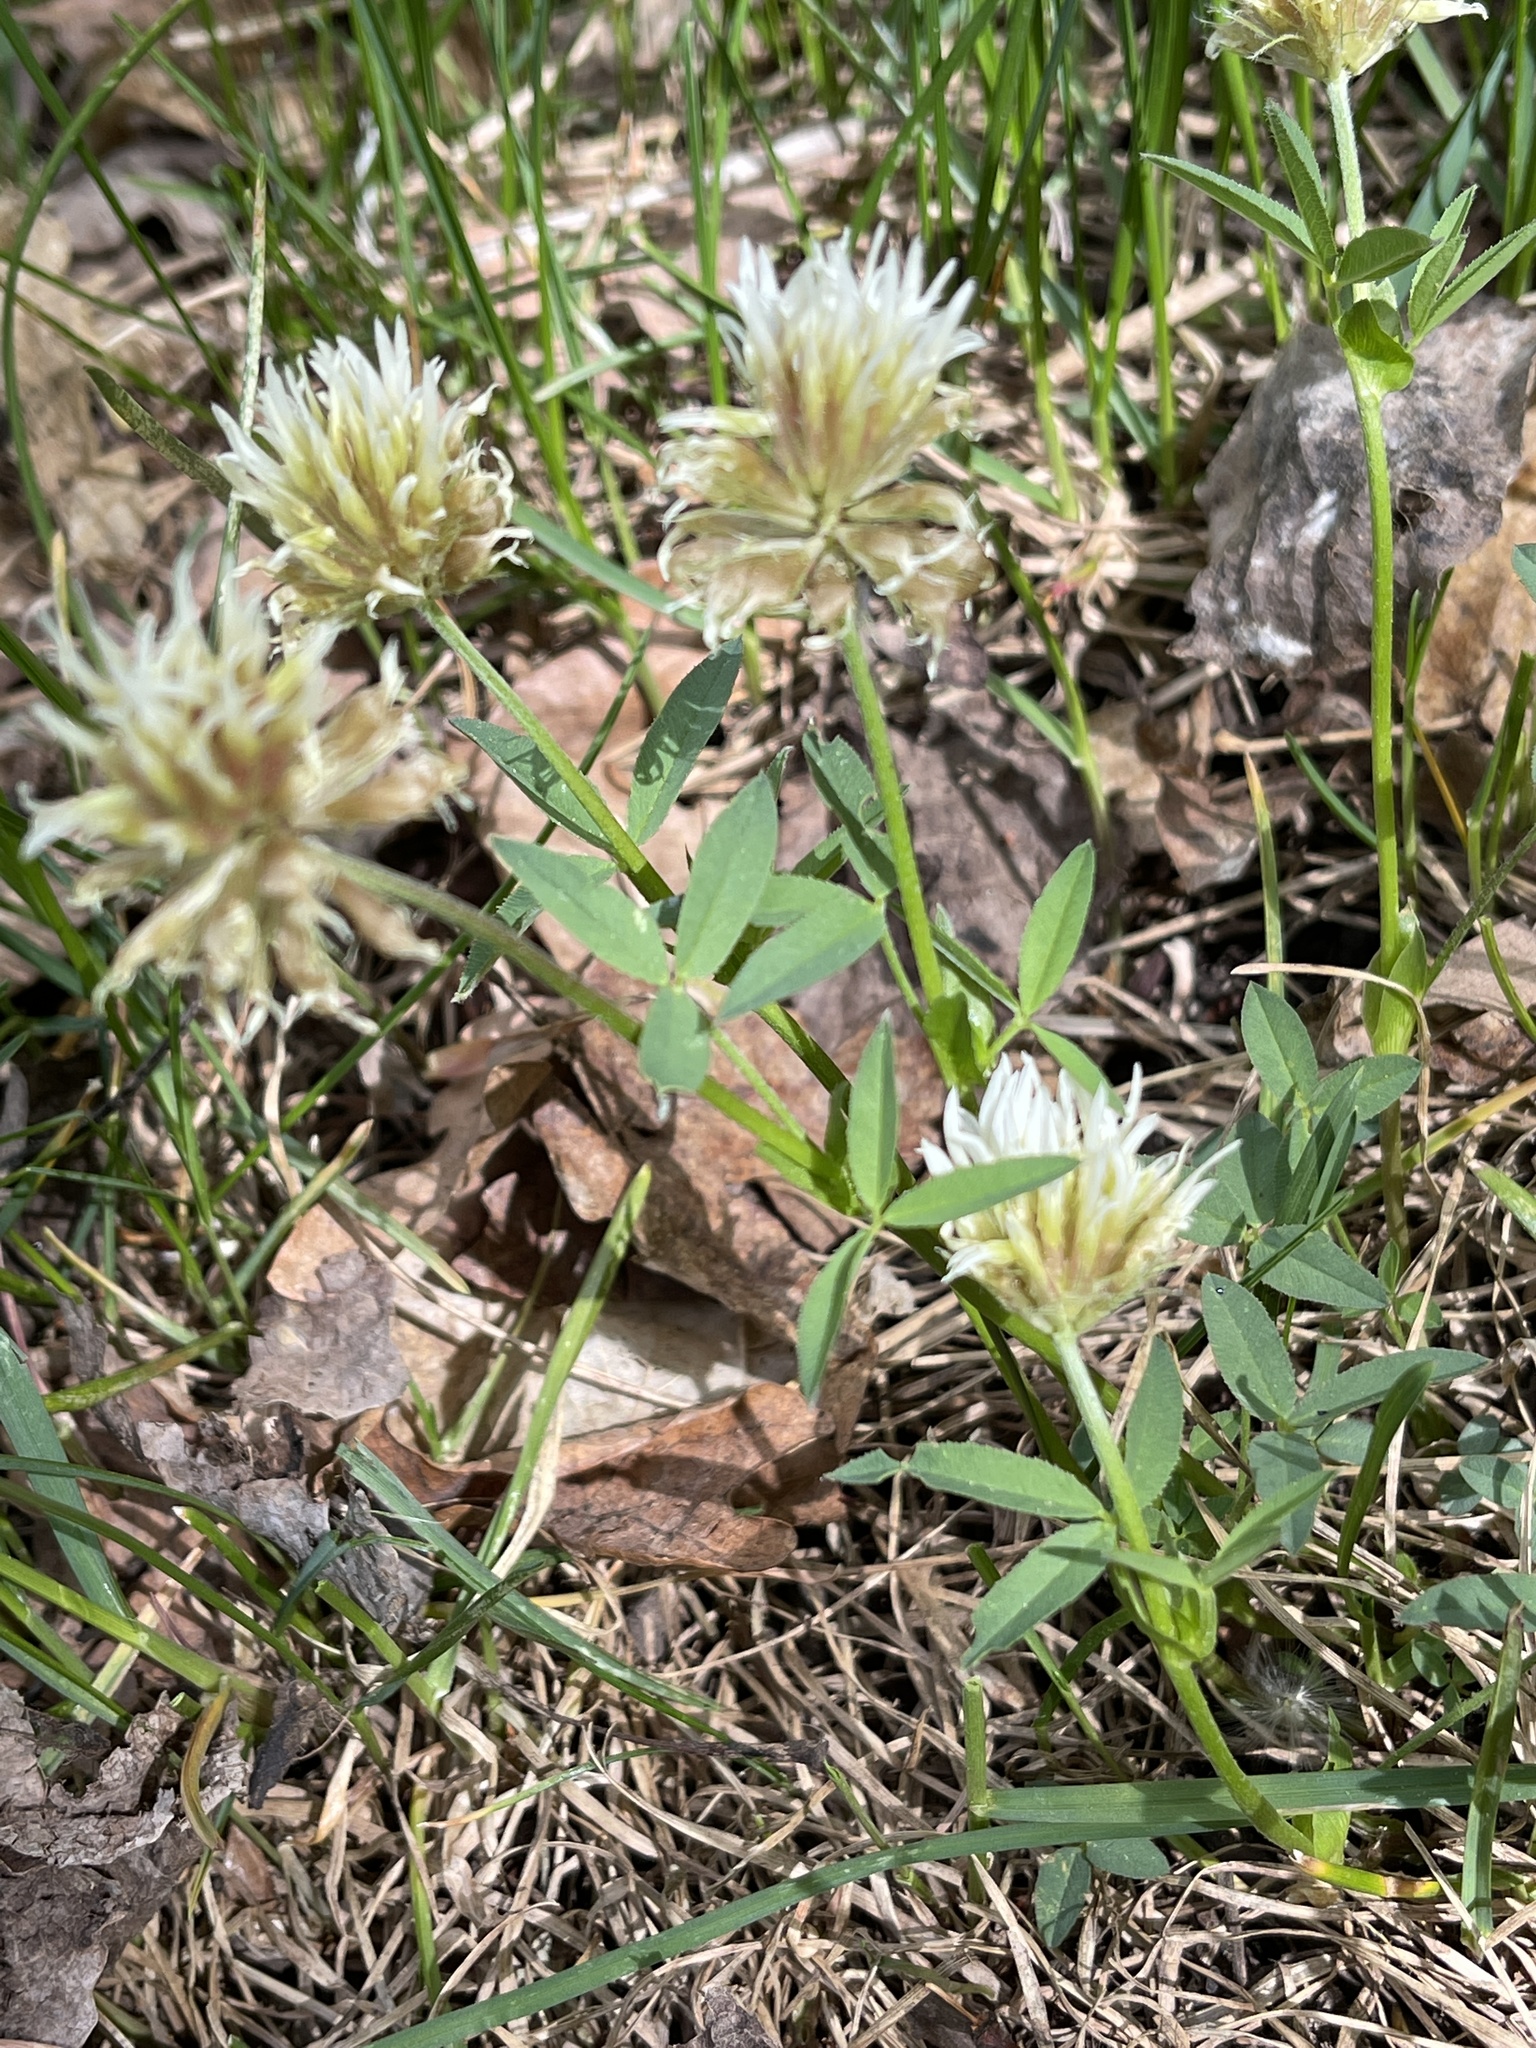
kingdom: Plantae
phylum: Tracheophyta
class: Magnoliopsida
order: Fabales
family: Fabaceae
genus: Trifolium
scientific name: Trifolium longipes
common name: Long-stalk clover
